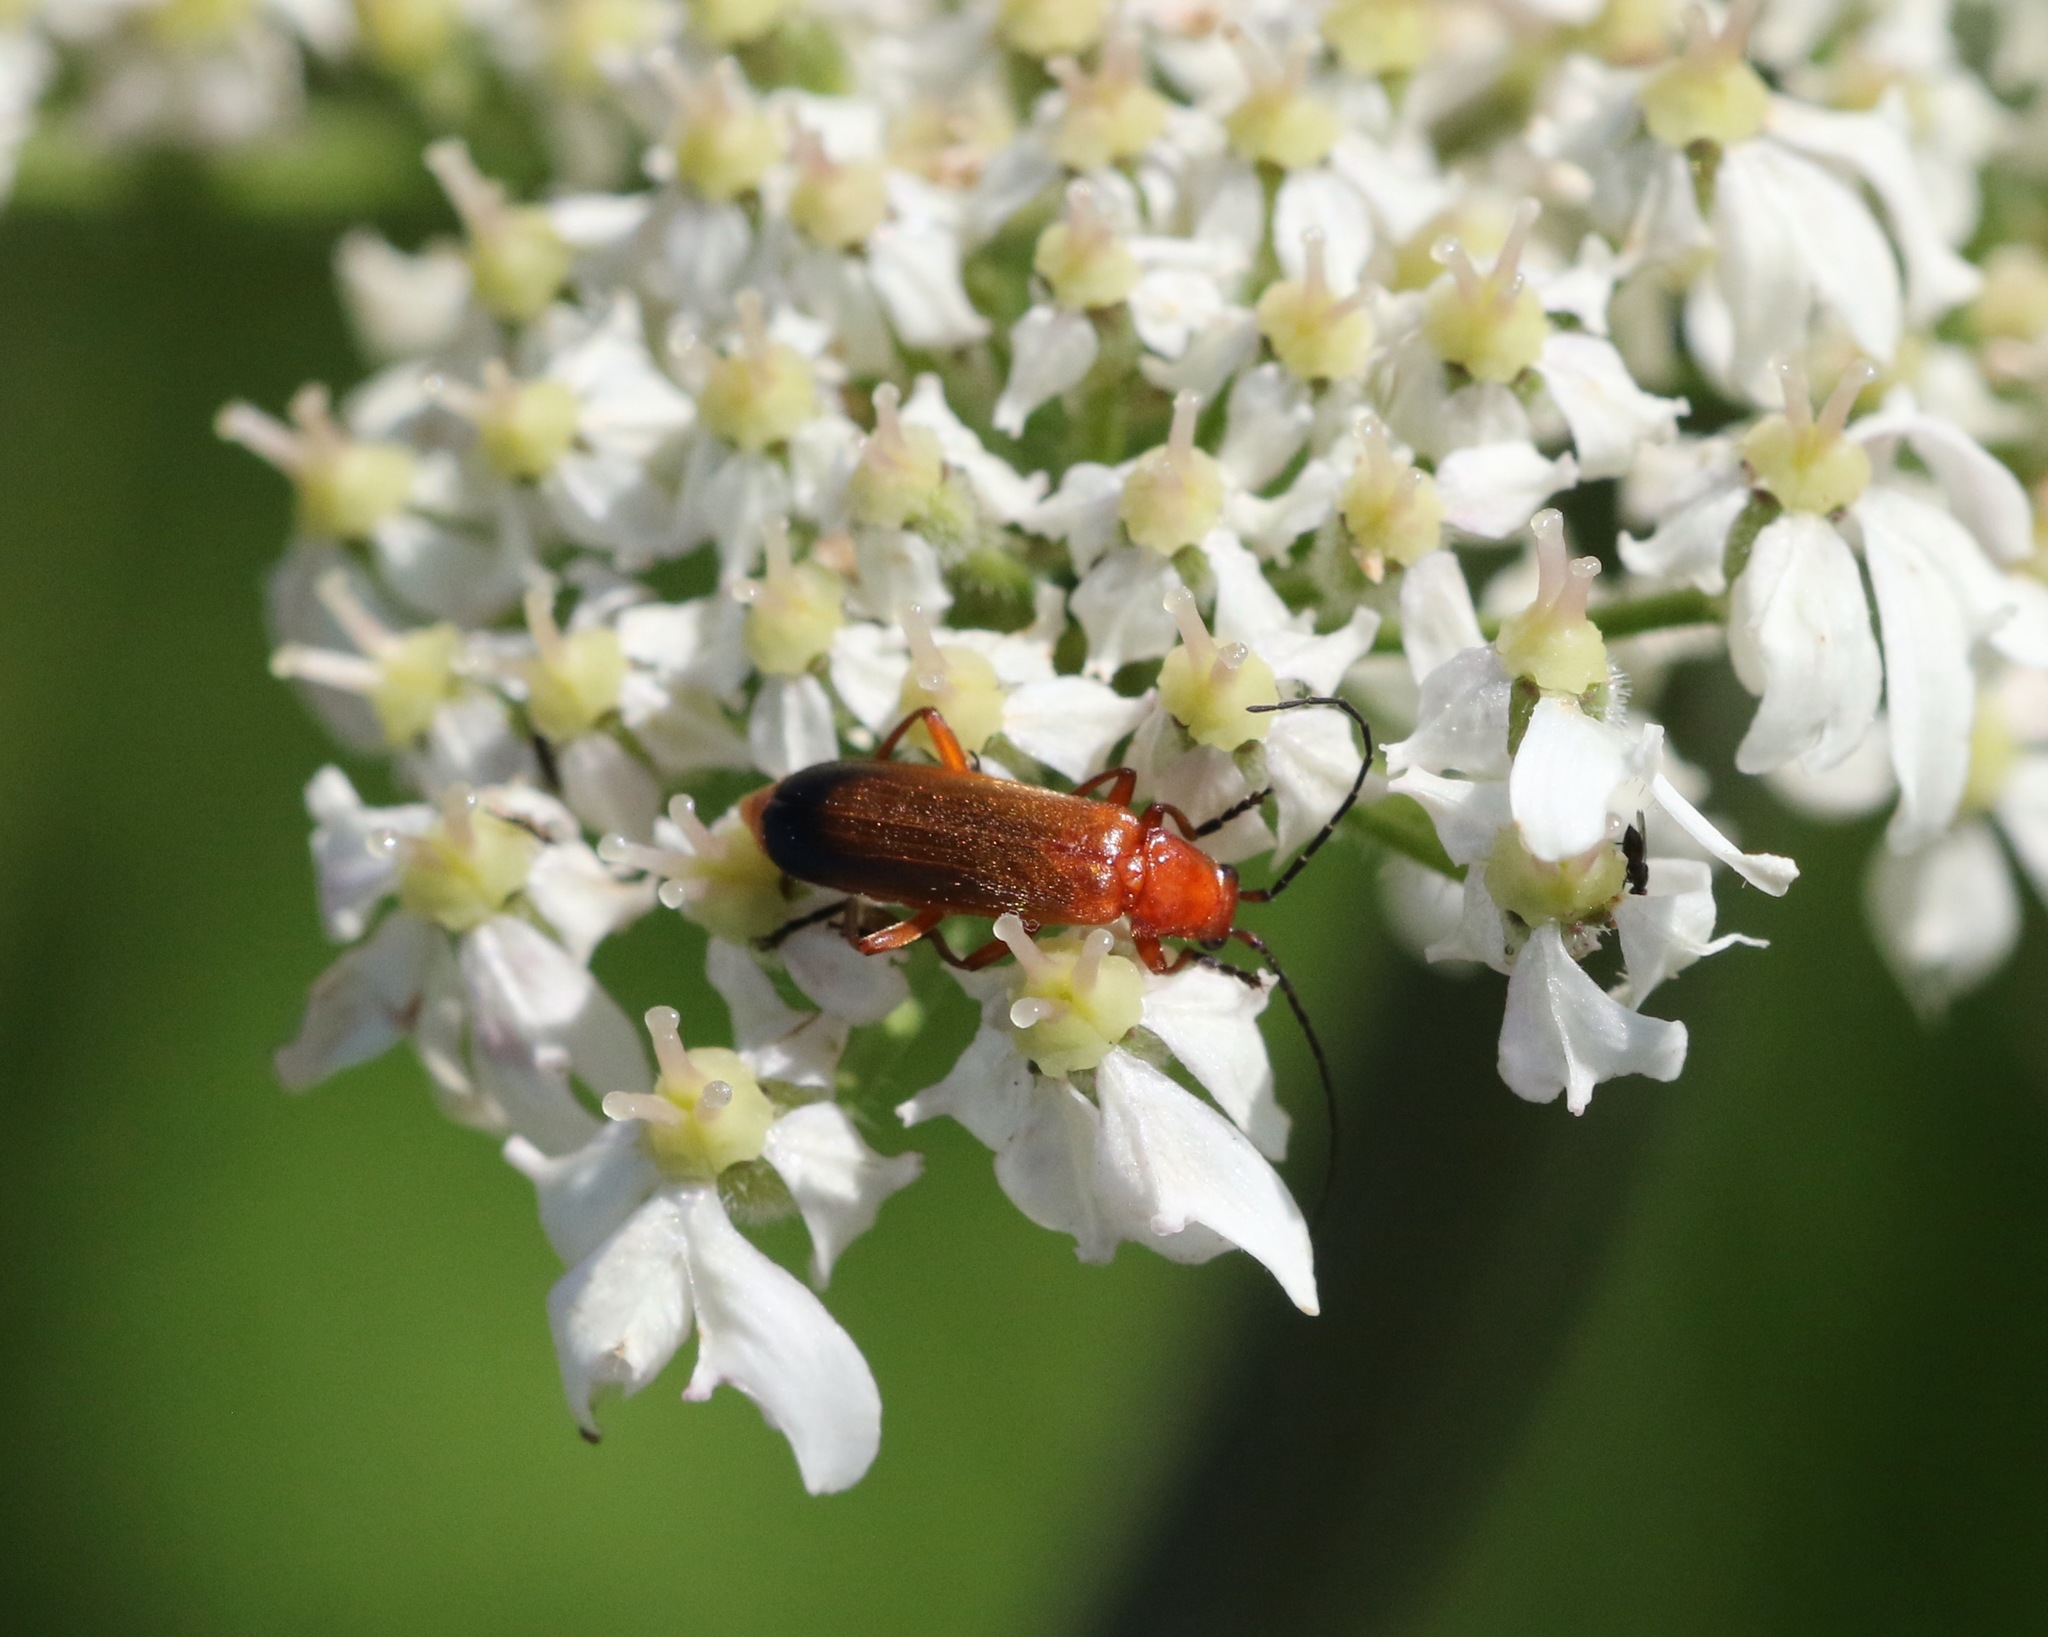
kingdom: Animalia
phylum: Arthropoda
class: Insecta
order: Coleoptera
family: Cantharidae
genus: Rhagonycha
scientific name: Rhagonycha fulva
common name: Common red soldier beetle
